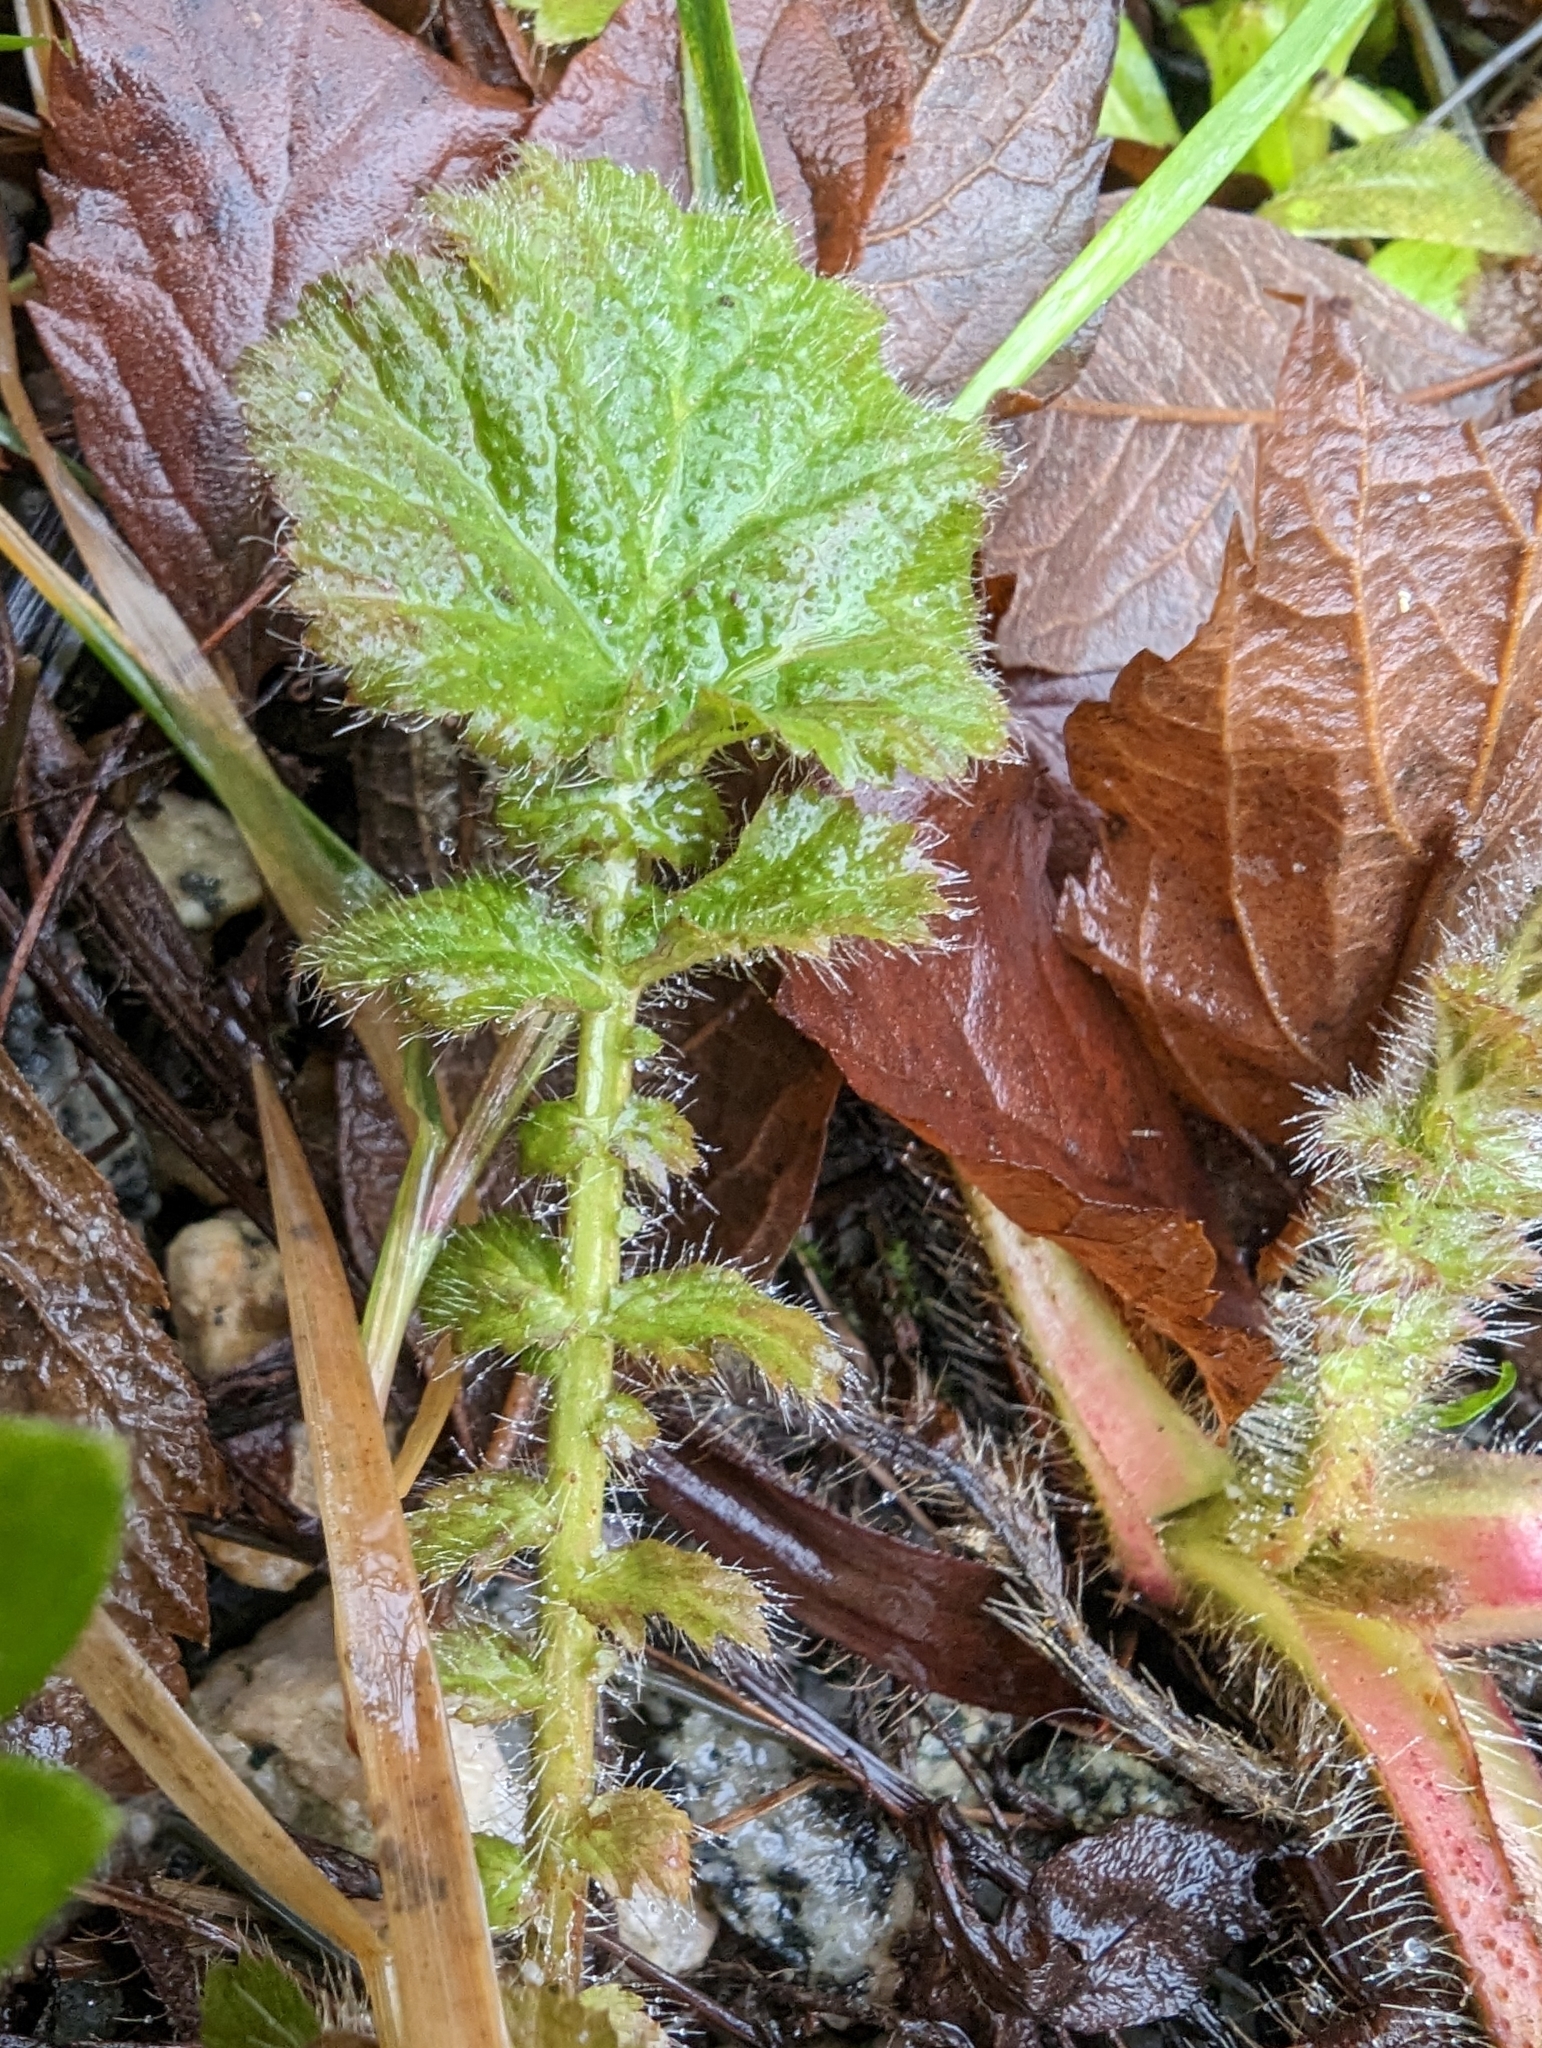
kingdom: Plantae
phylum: Tracheophyta
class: Magnoliopsida
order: Rosales
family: Rosaceae
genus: Geum
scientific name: Geum macrophyllum
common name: Large-leaved avens
